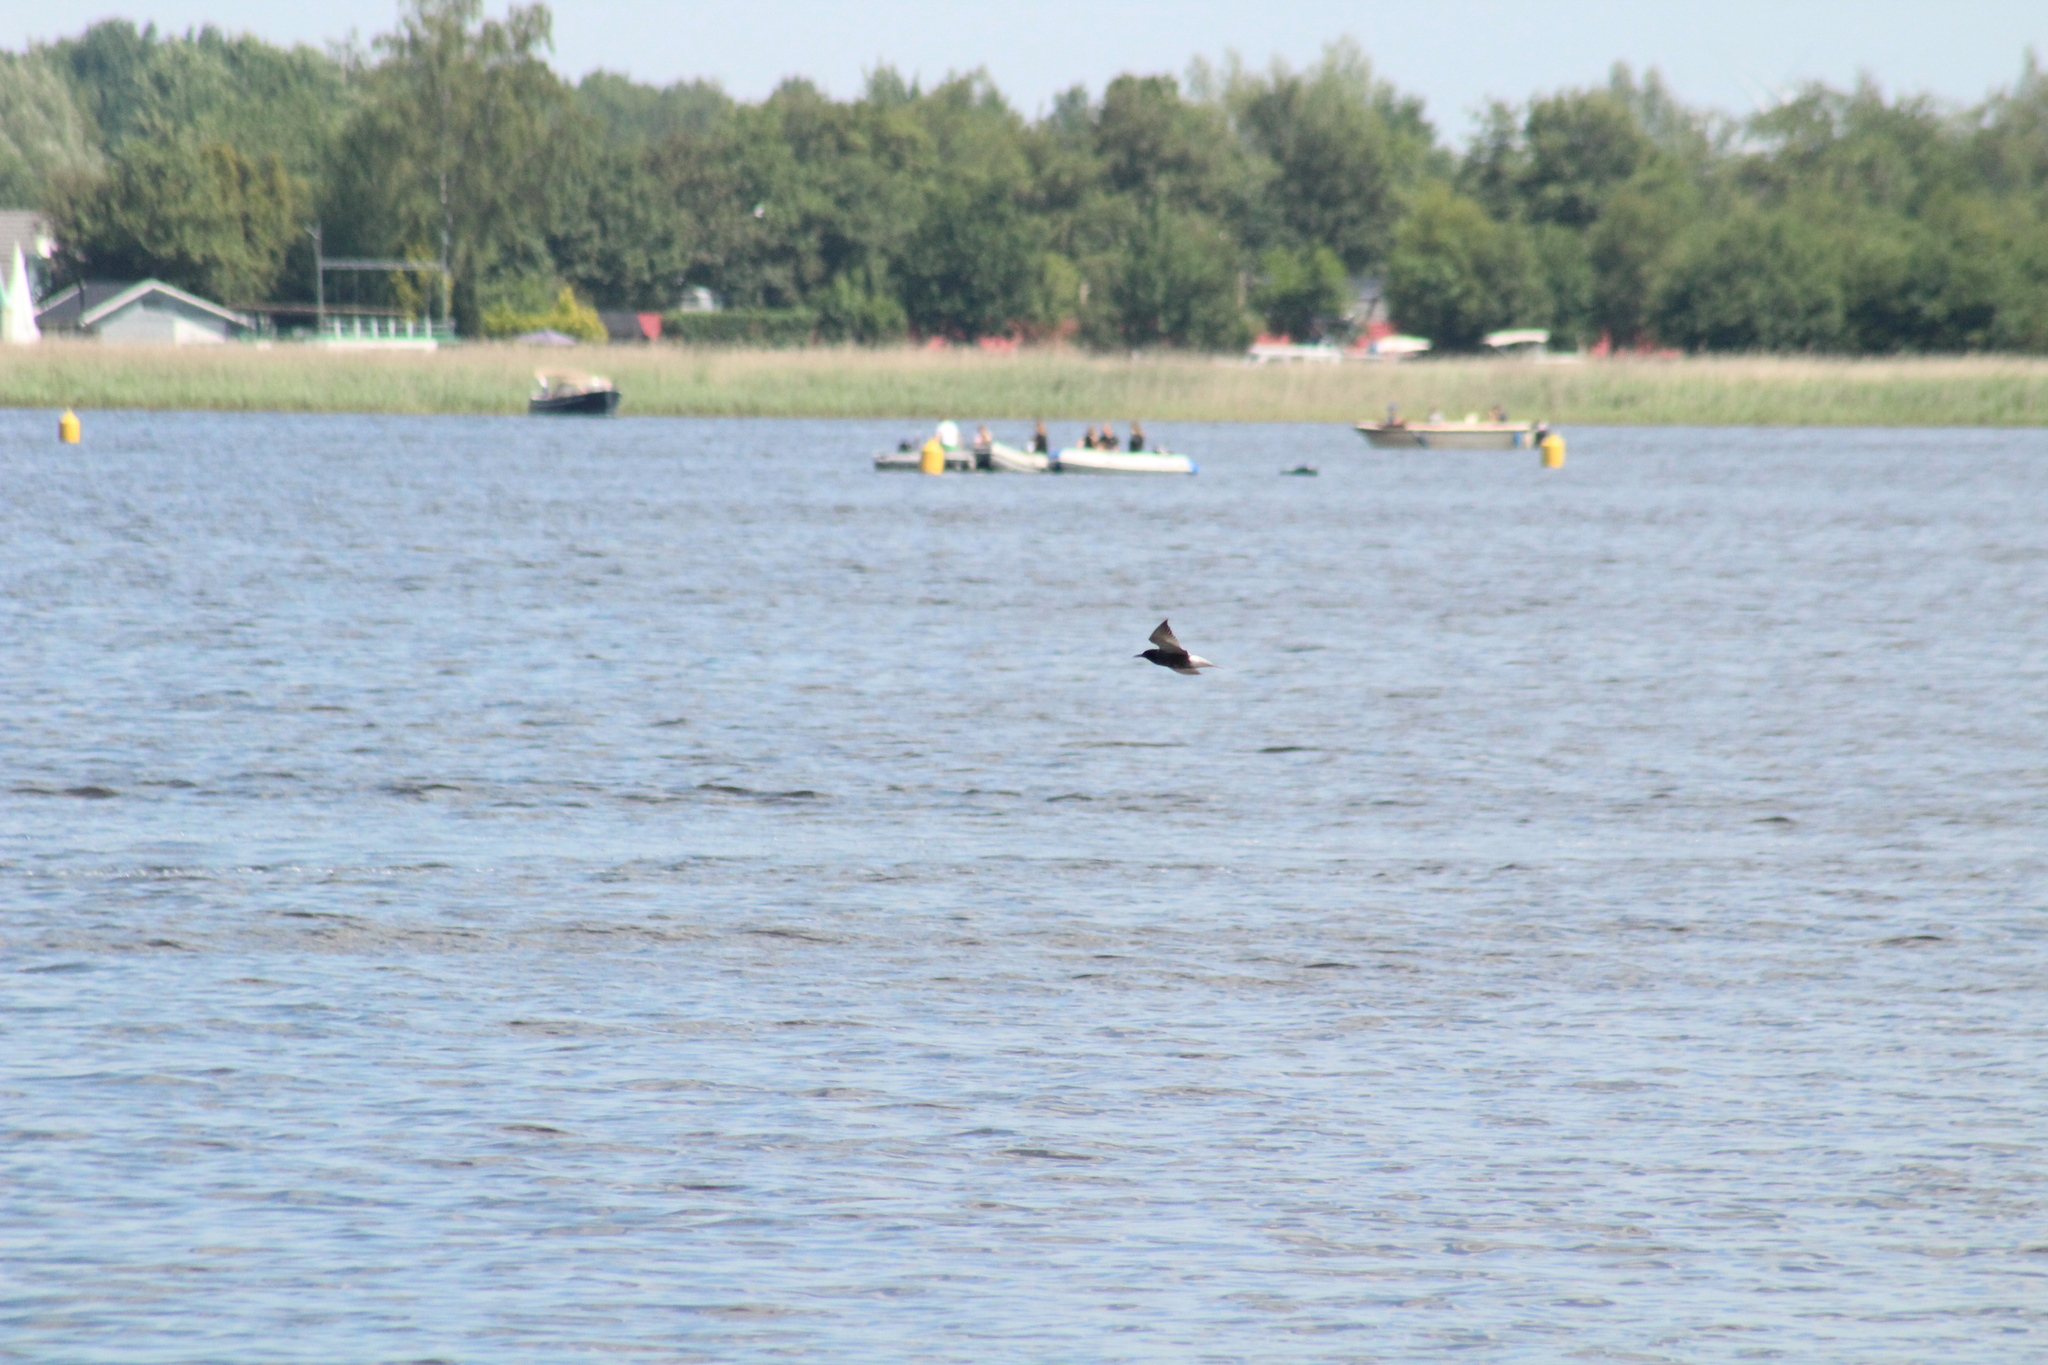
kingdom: Animalia
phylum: Chordata
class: Aves
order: Charadriiformes
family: Laridae
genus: Chlidonias
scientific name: Chlidonias leucopterus
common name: White-winged tern
